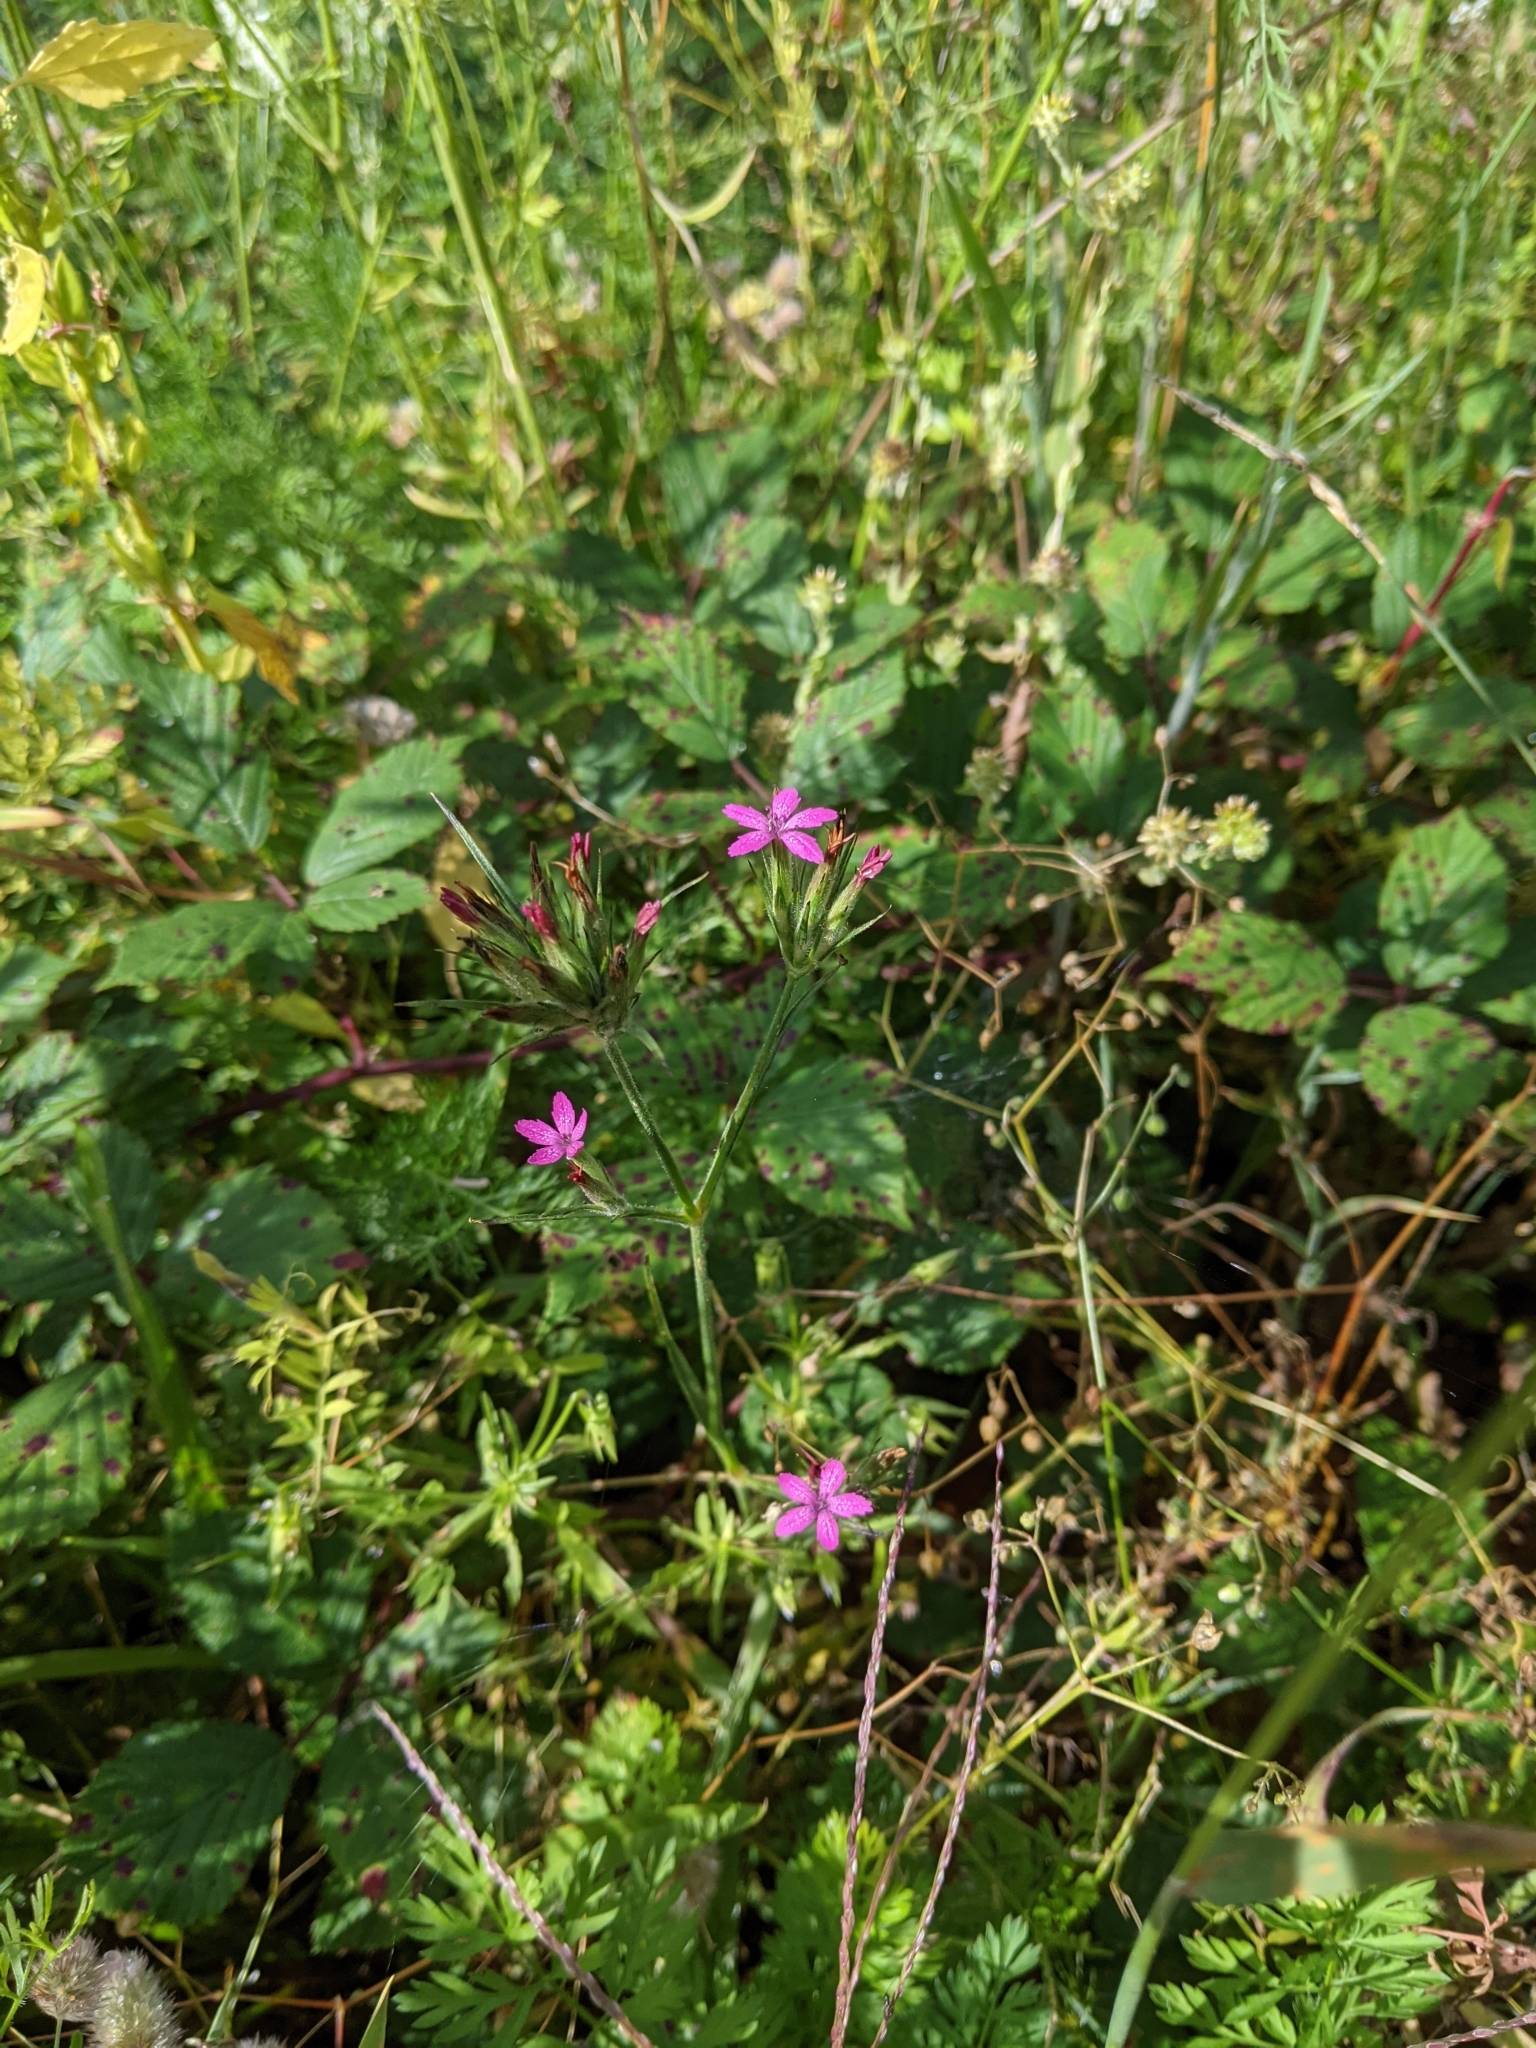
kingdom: Plantae
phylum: Tracheophyta
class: Magnoliopsida
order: Caryophyllales
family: Caryophyllaceae
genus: Dianthus
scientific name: Dianthus armeria
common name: Deptford pink
